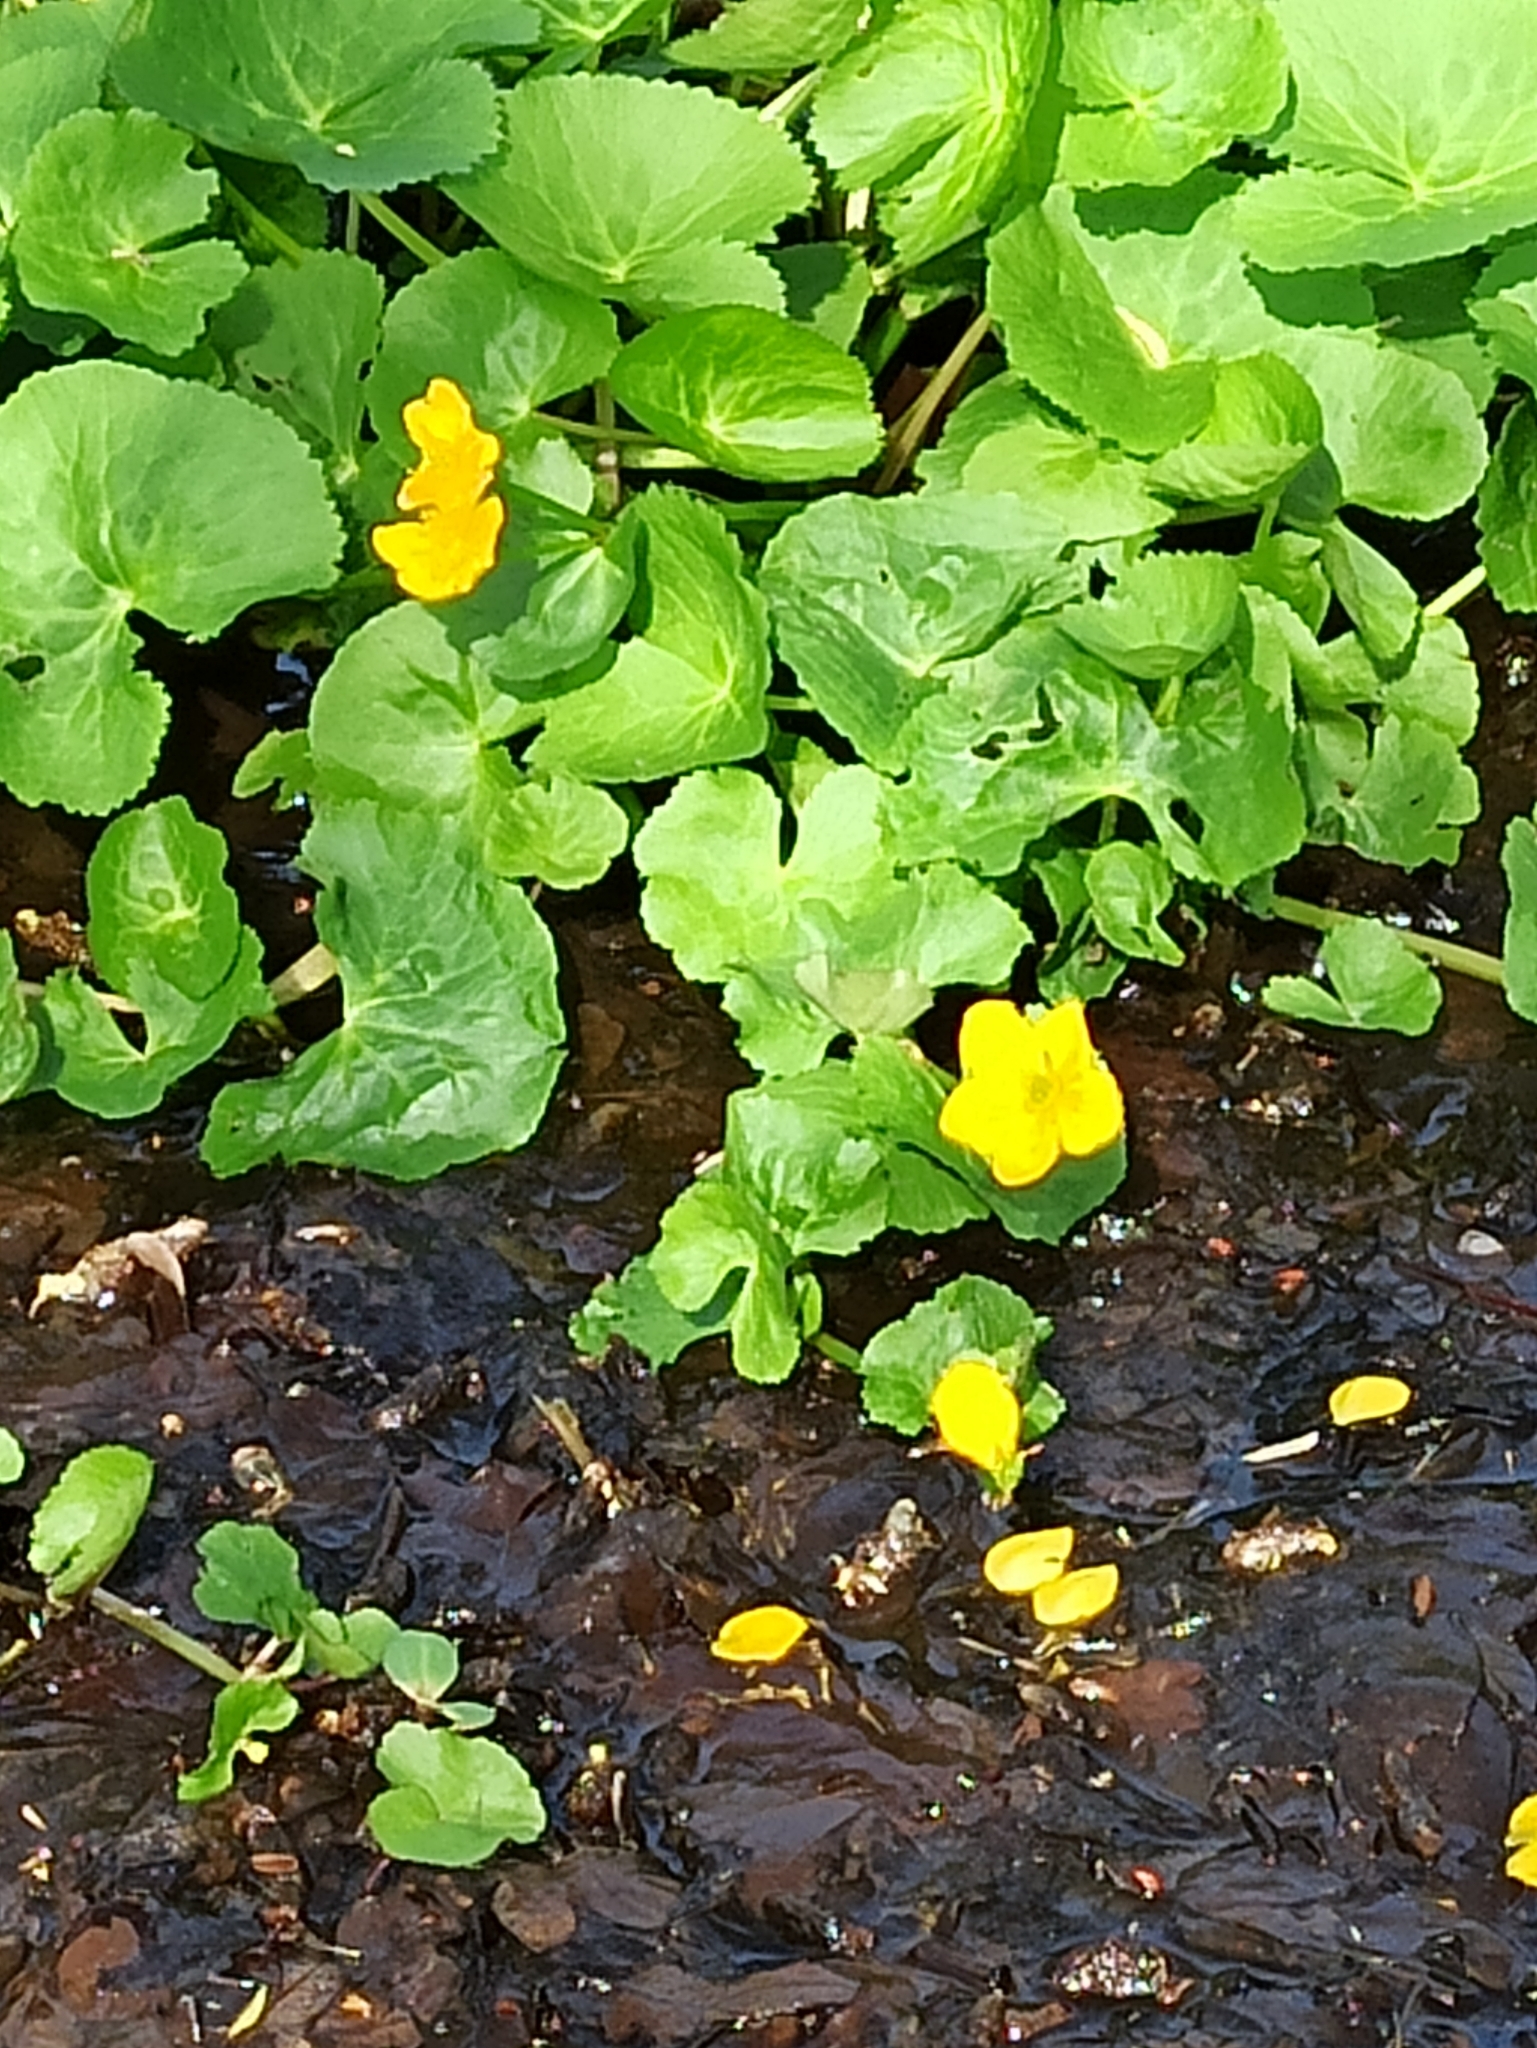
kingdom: Plantae
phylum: Tracheophyta
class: Magnoliopsida
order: Ranunculales
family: Ranunculaceae
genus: Caltha
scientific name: Caltha palustris
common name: Marsh marigold
